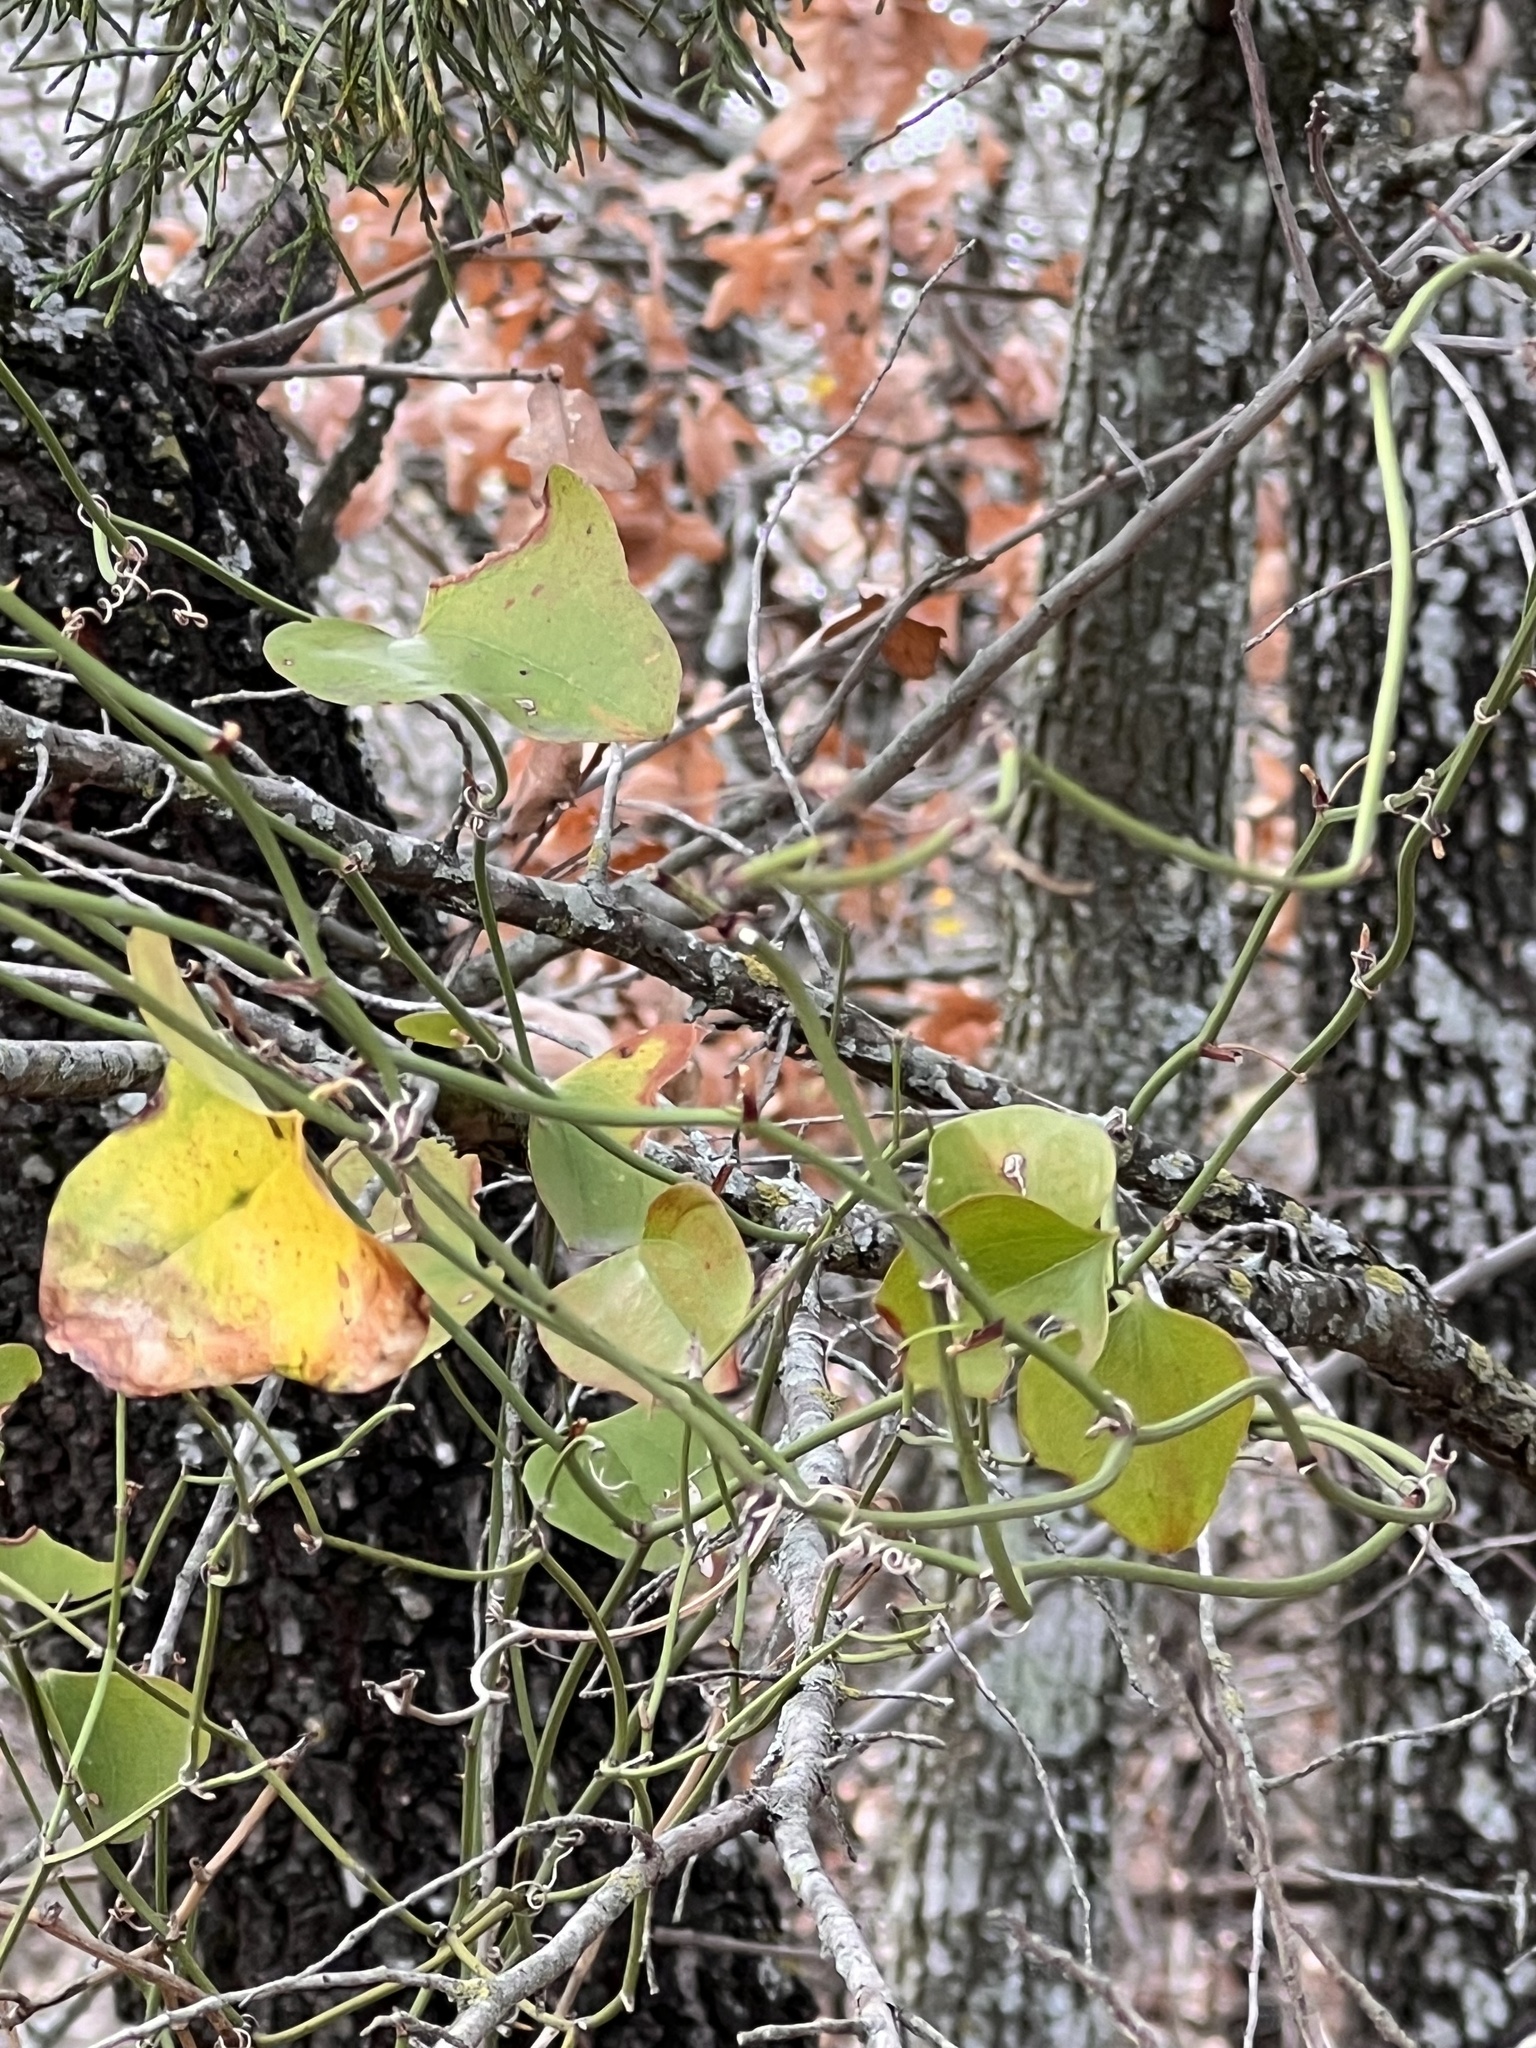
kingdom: Plantae
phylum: Tracheophyta
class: Liliopsida
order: Liliales
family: Smilacaceae
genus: Smilax
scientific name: Smilax bona-nox
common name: Catbrier
